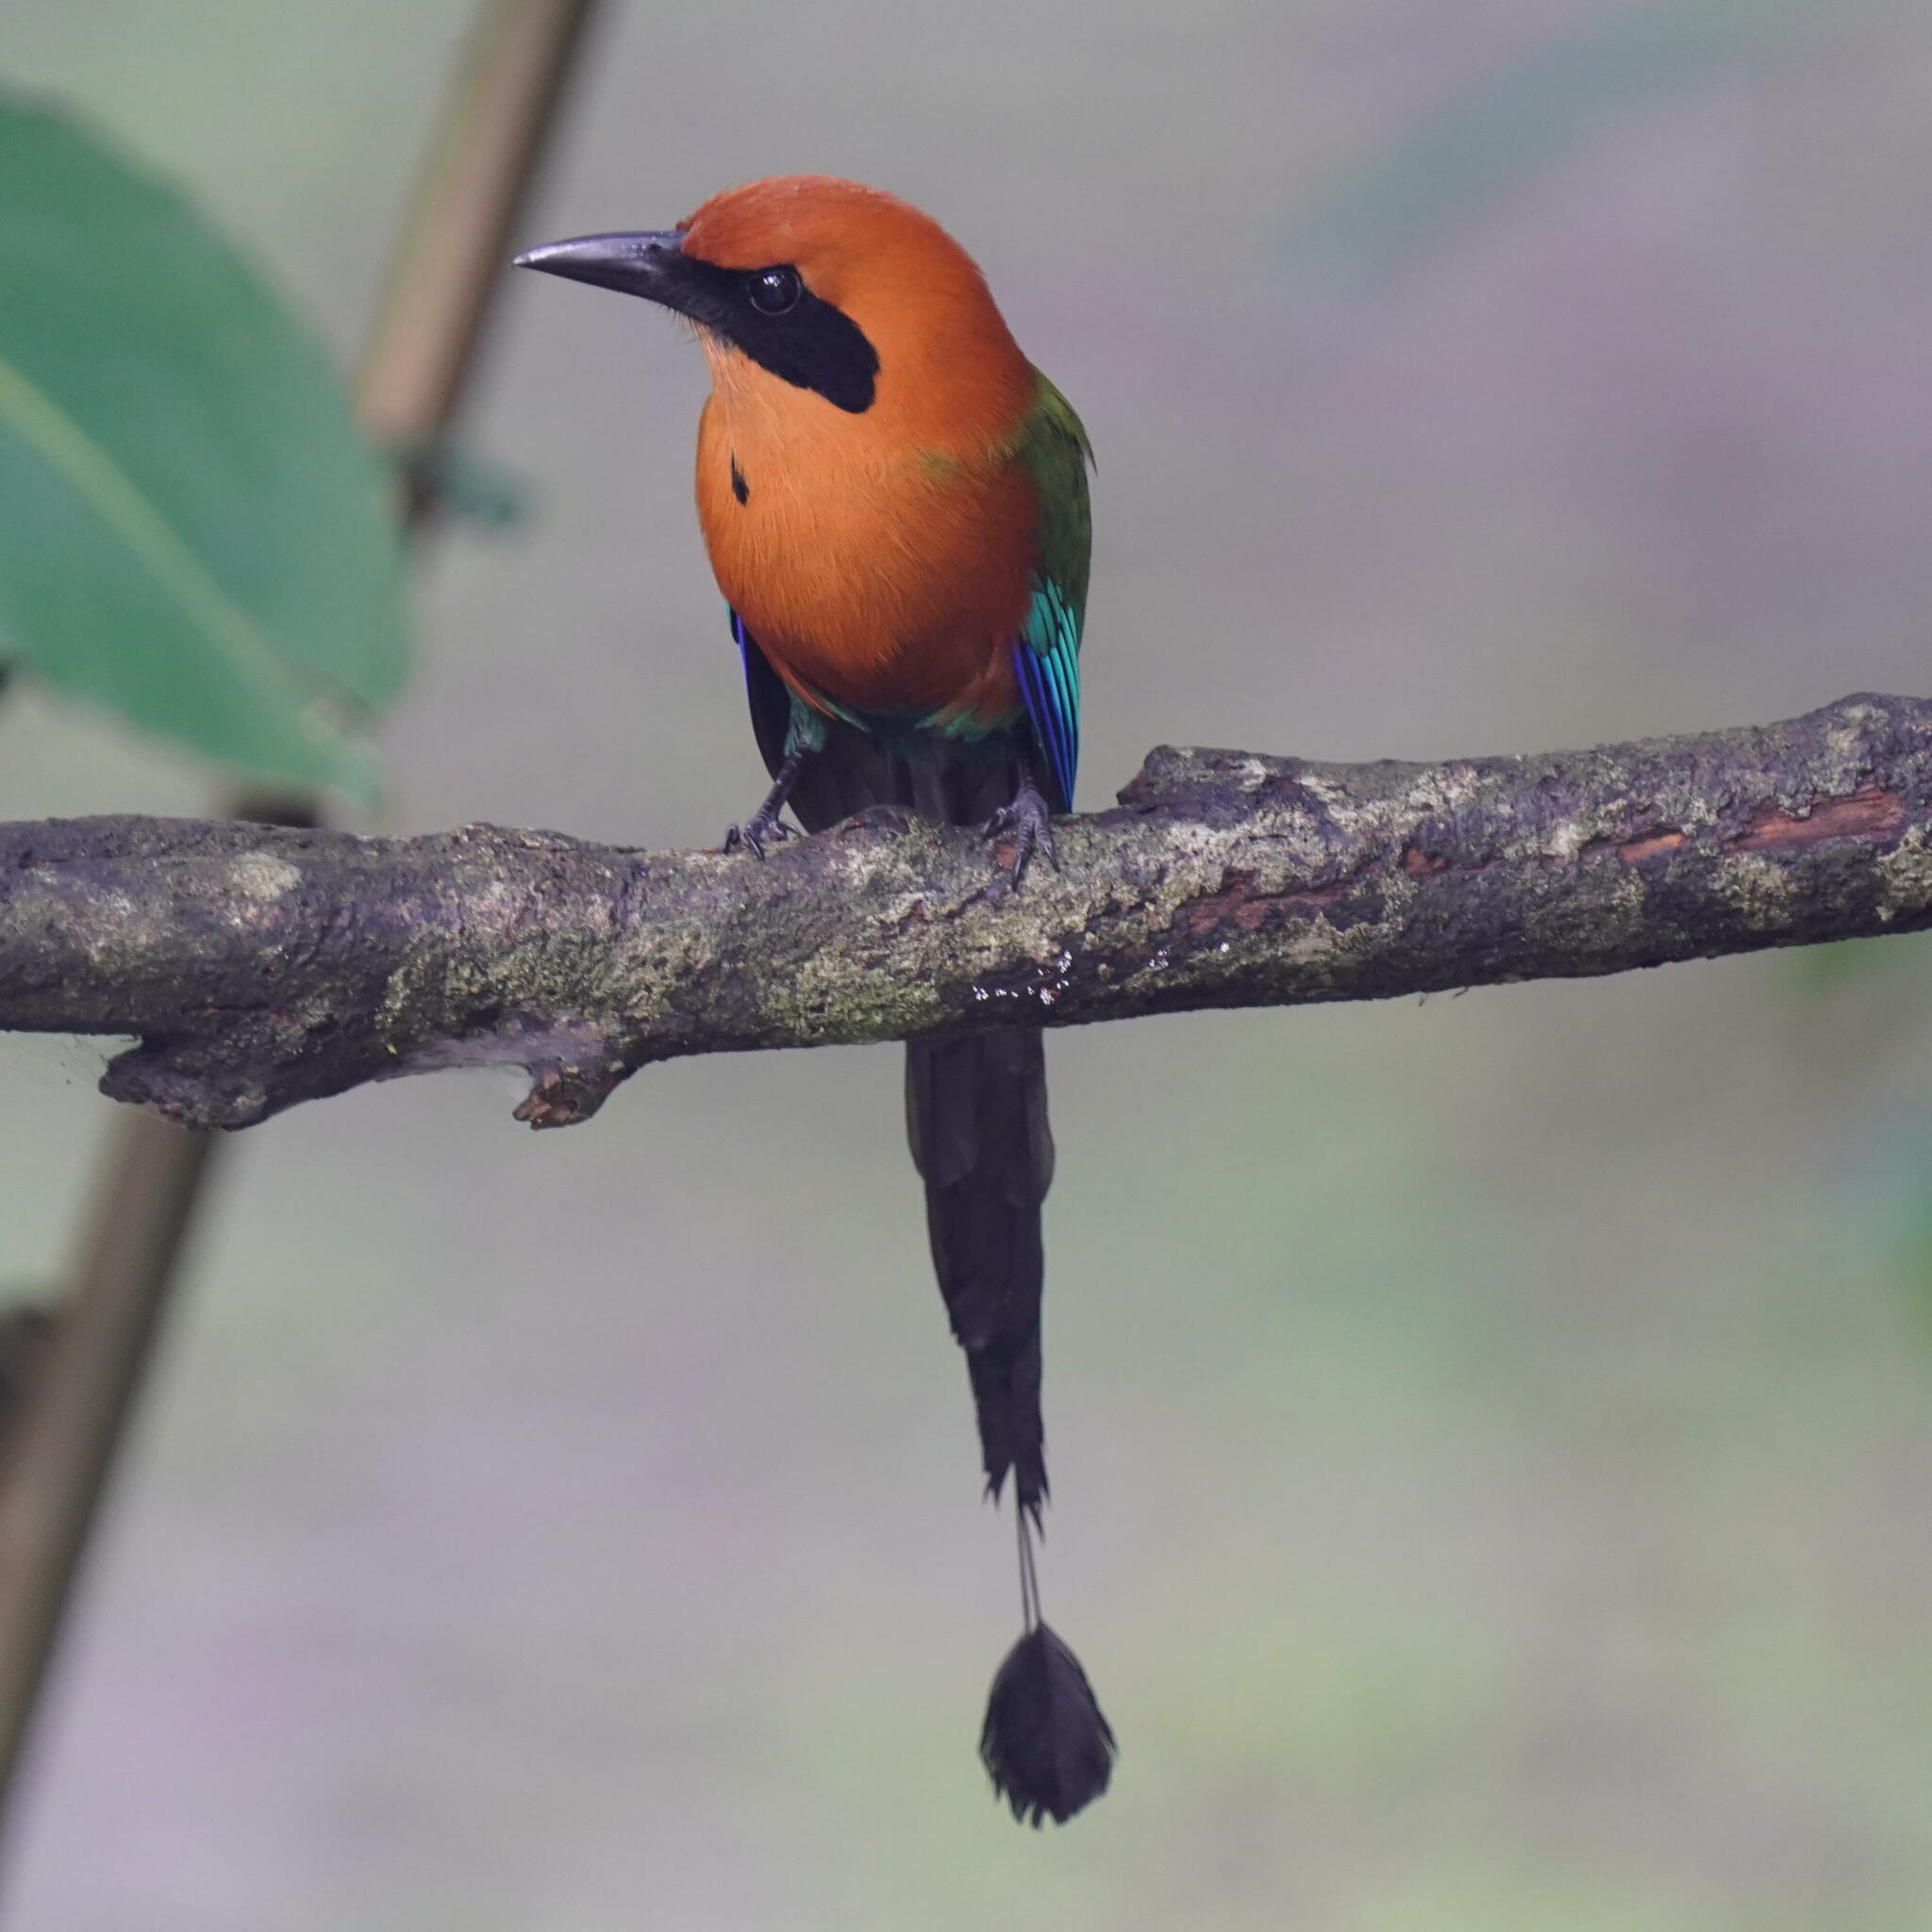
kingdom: Animalia
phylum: Chordata
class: Aves
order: Coraciiformes
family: Momotidae
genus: Baryphthengus
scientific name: Baryphthengus martii
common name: Rufous motmot
